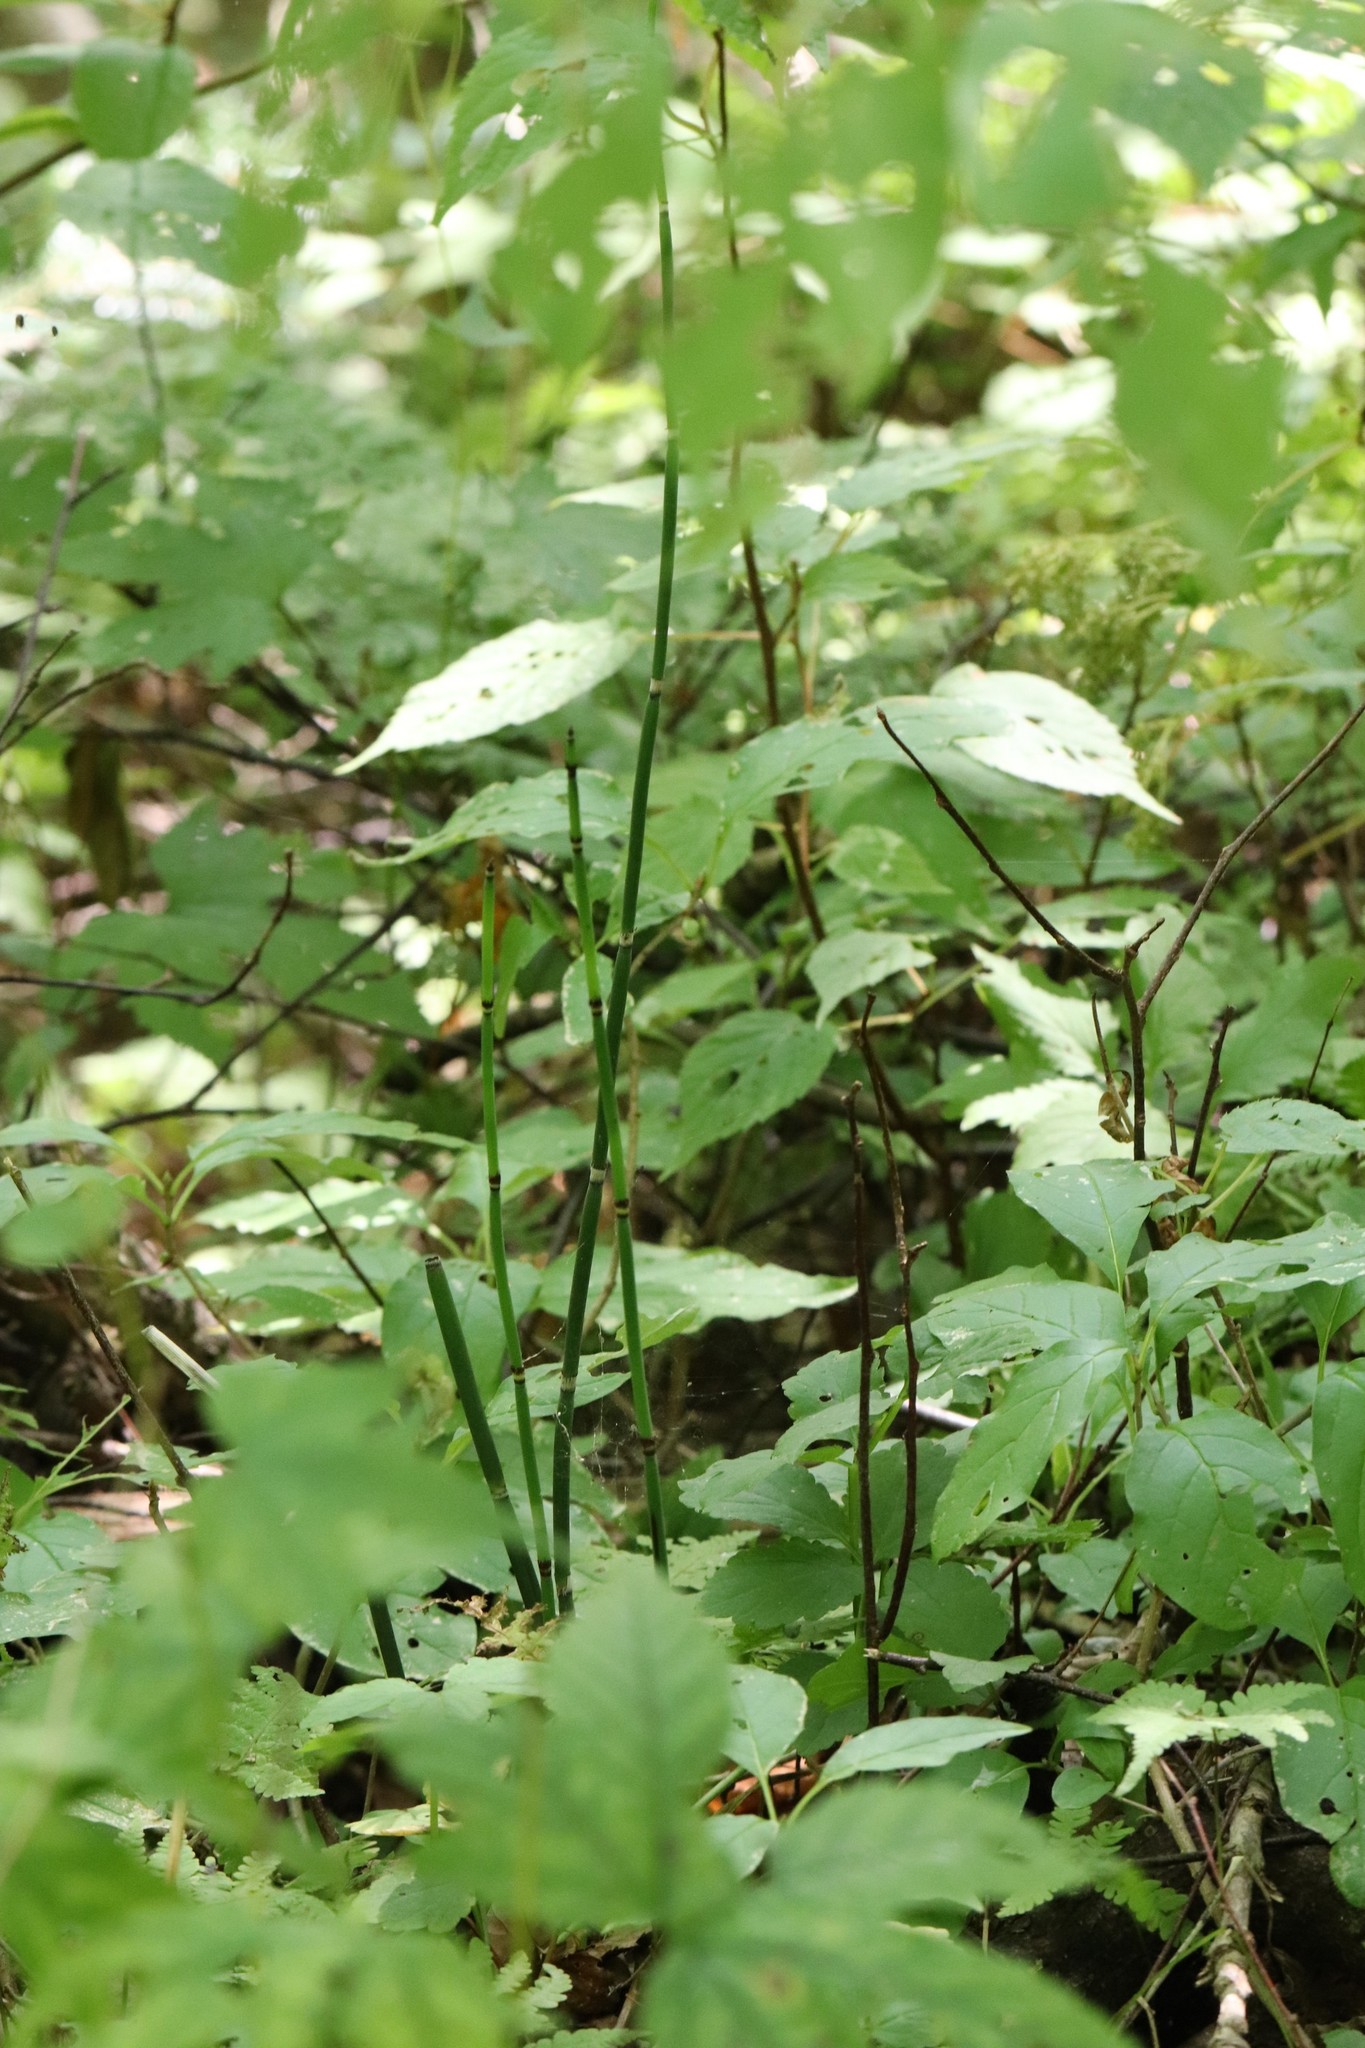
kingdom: Plantae
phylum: Tracheophyta
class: Polypodiopsida
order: Equisetales
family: Equisetaceae
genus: Equisetum
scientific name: Equisetum hyemale
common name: Rough horsetail
